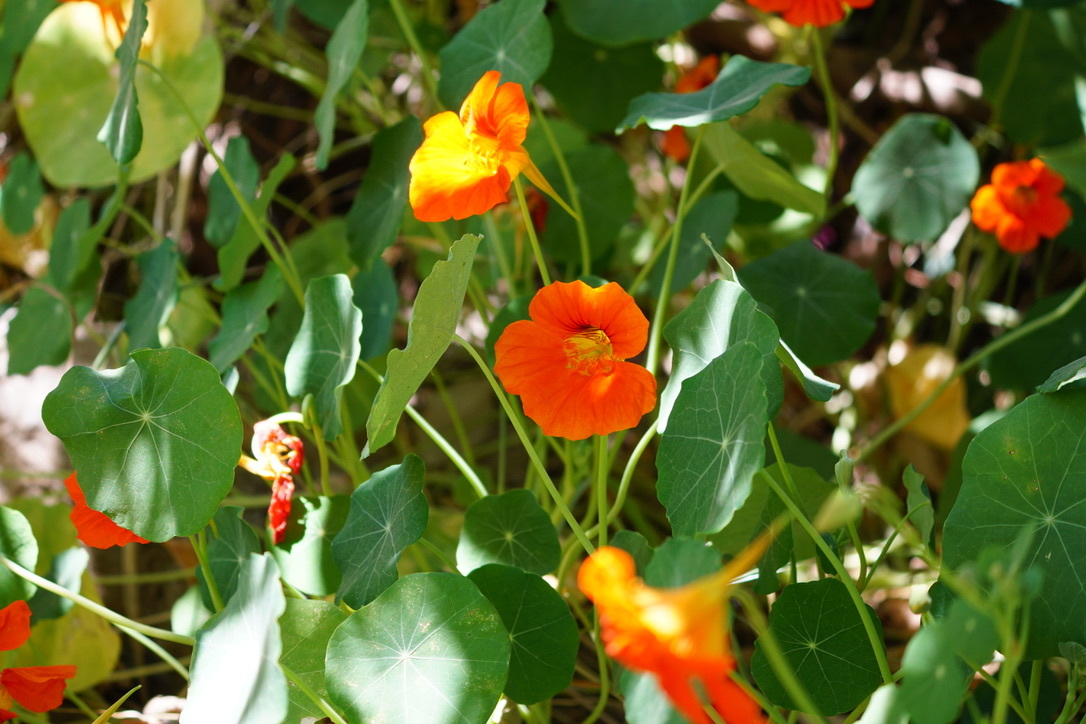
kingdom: Plantae
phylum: Tracheophyta
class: Magnoliopsida
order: Brassicales
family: Tropaeolaceae
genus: Tropaeolum
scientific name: Tropaeolum majus
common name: Nasturtium
